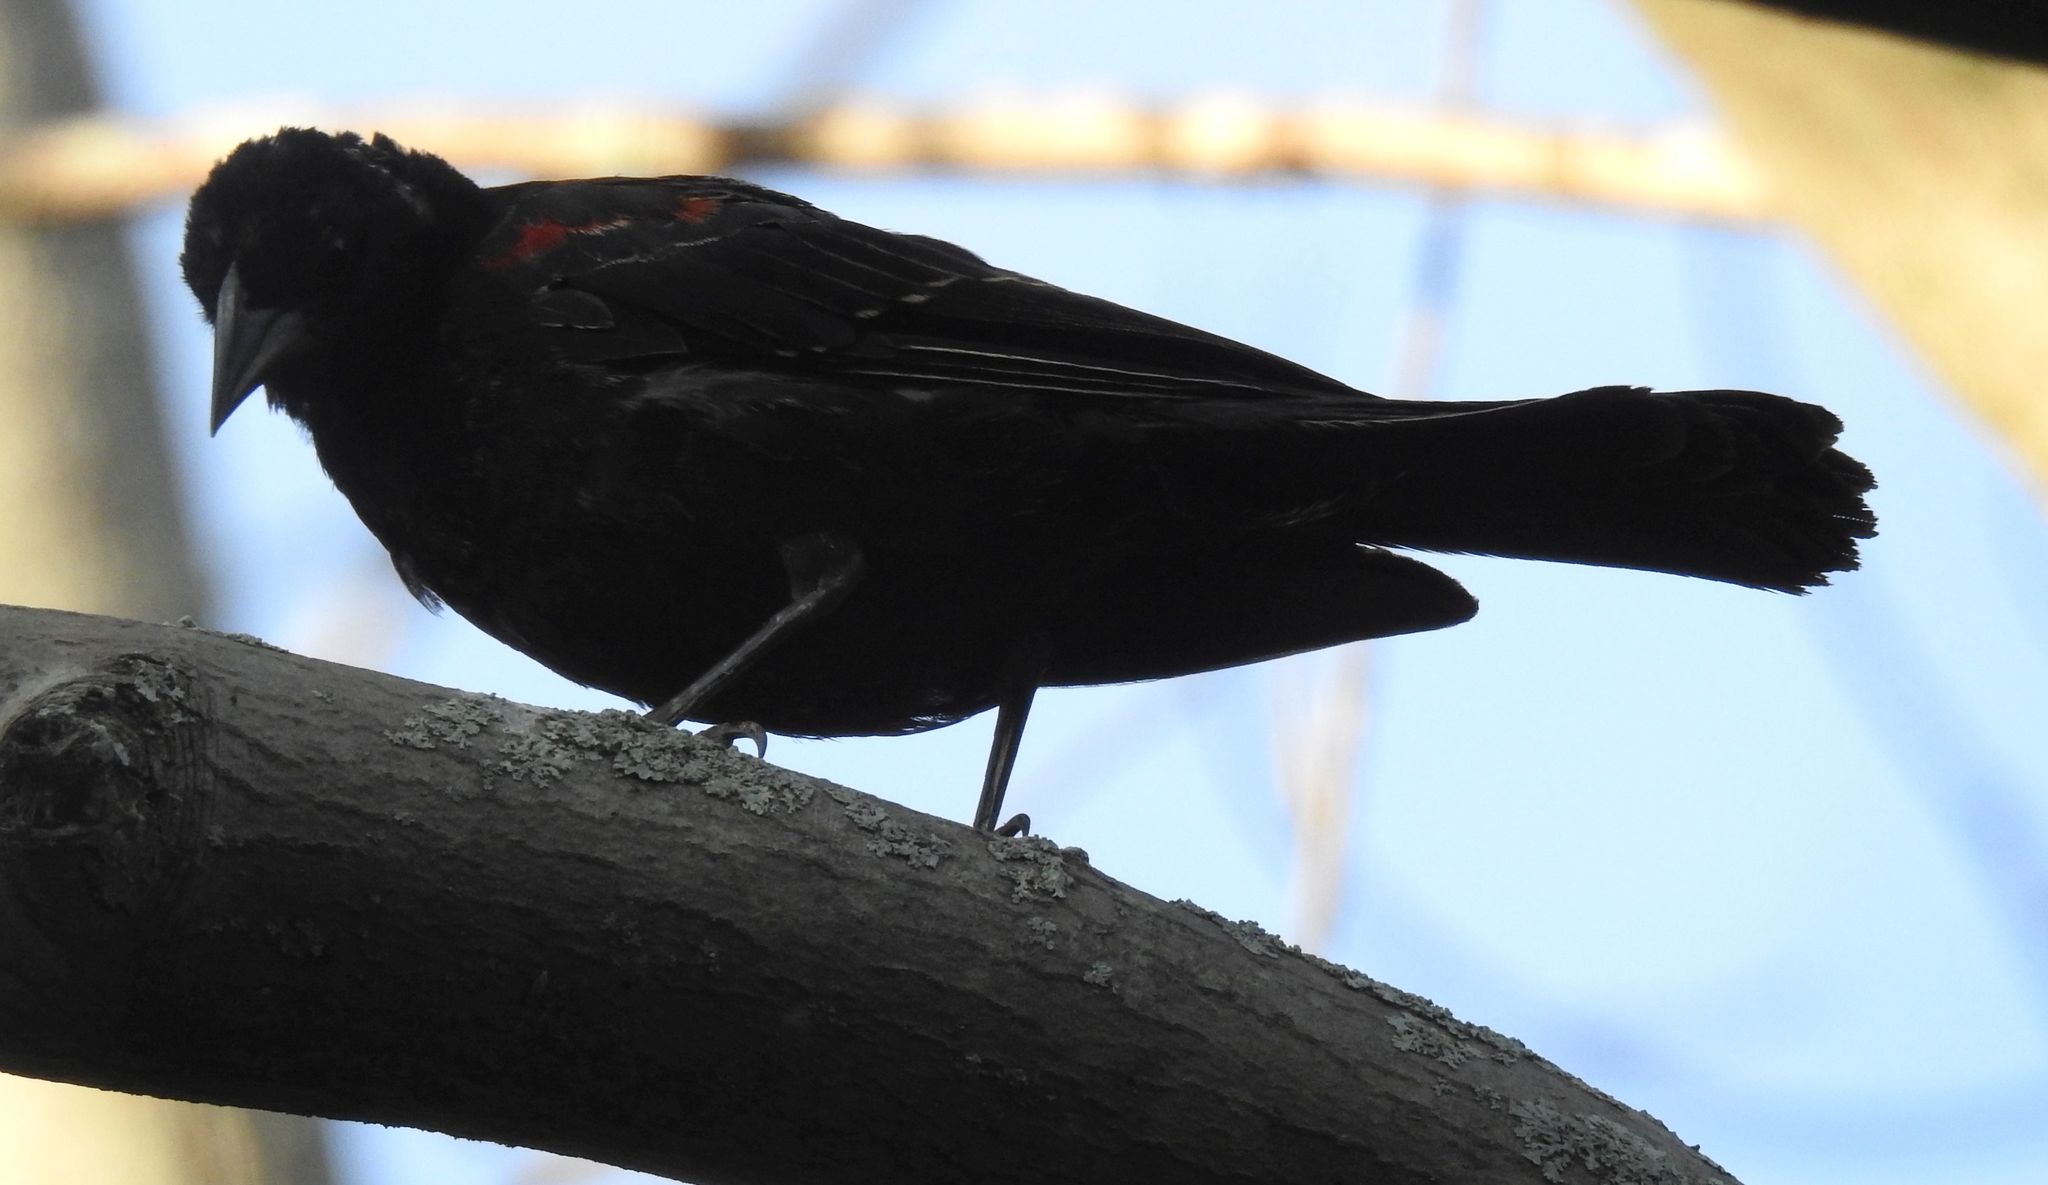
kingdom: Animalia
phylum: Chordata
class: Aves
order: Passeriformes
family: Icteridae
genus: Agelaius
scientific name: Agelaius phoeniceus
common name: Red-winged blackbird
